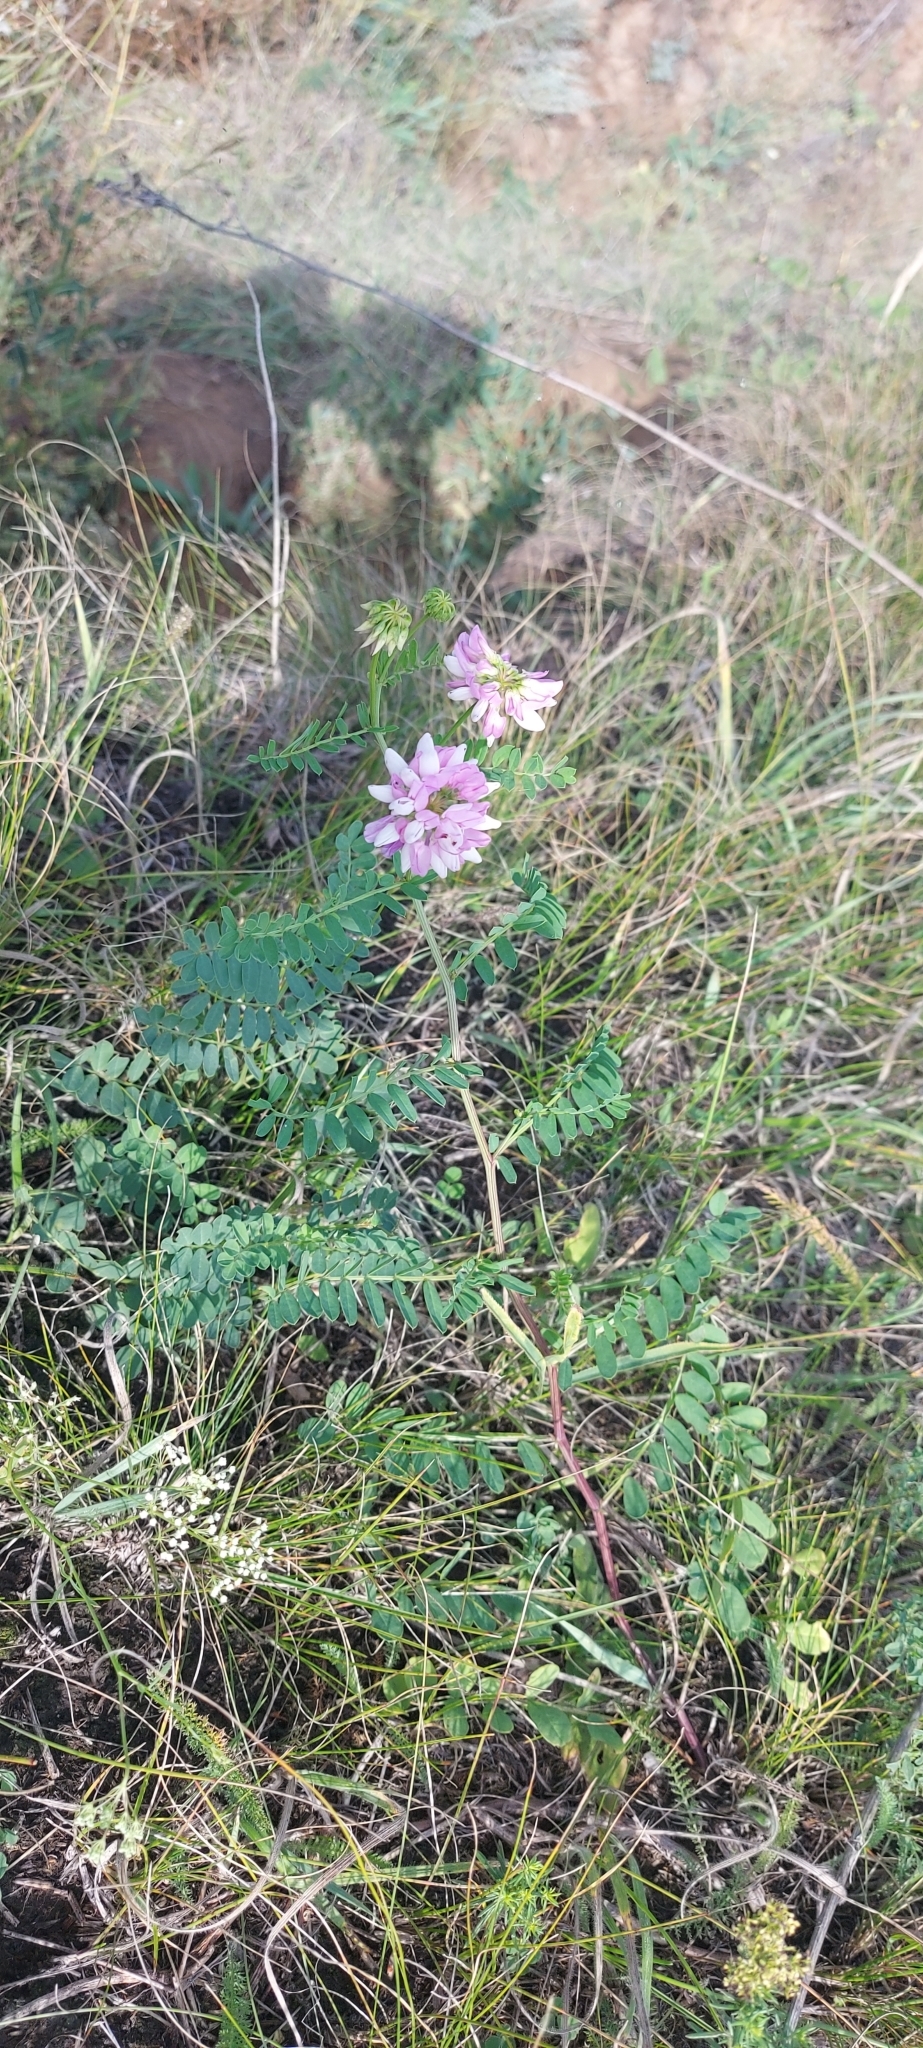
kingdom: Plantae
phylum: Tracheophyta
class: Magnoliopsida
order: Fabales
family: Fabaceae
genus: Coronilla
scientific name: Coronilla varia
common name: Crownvetch
